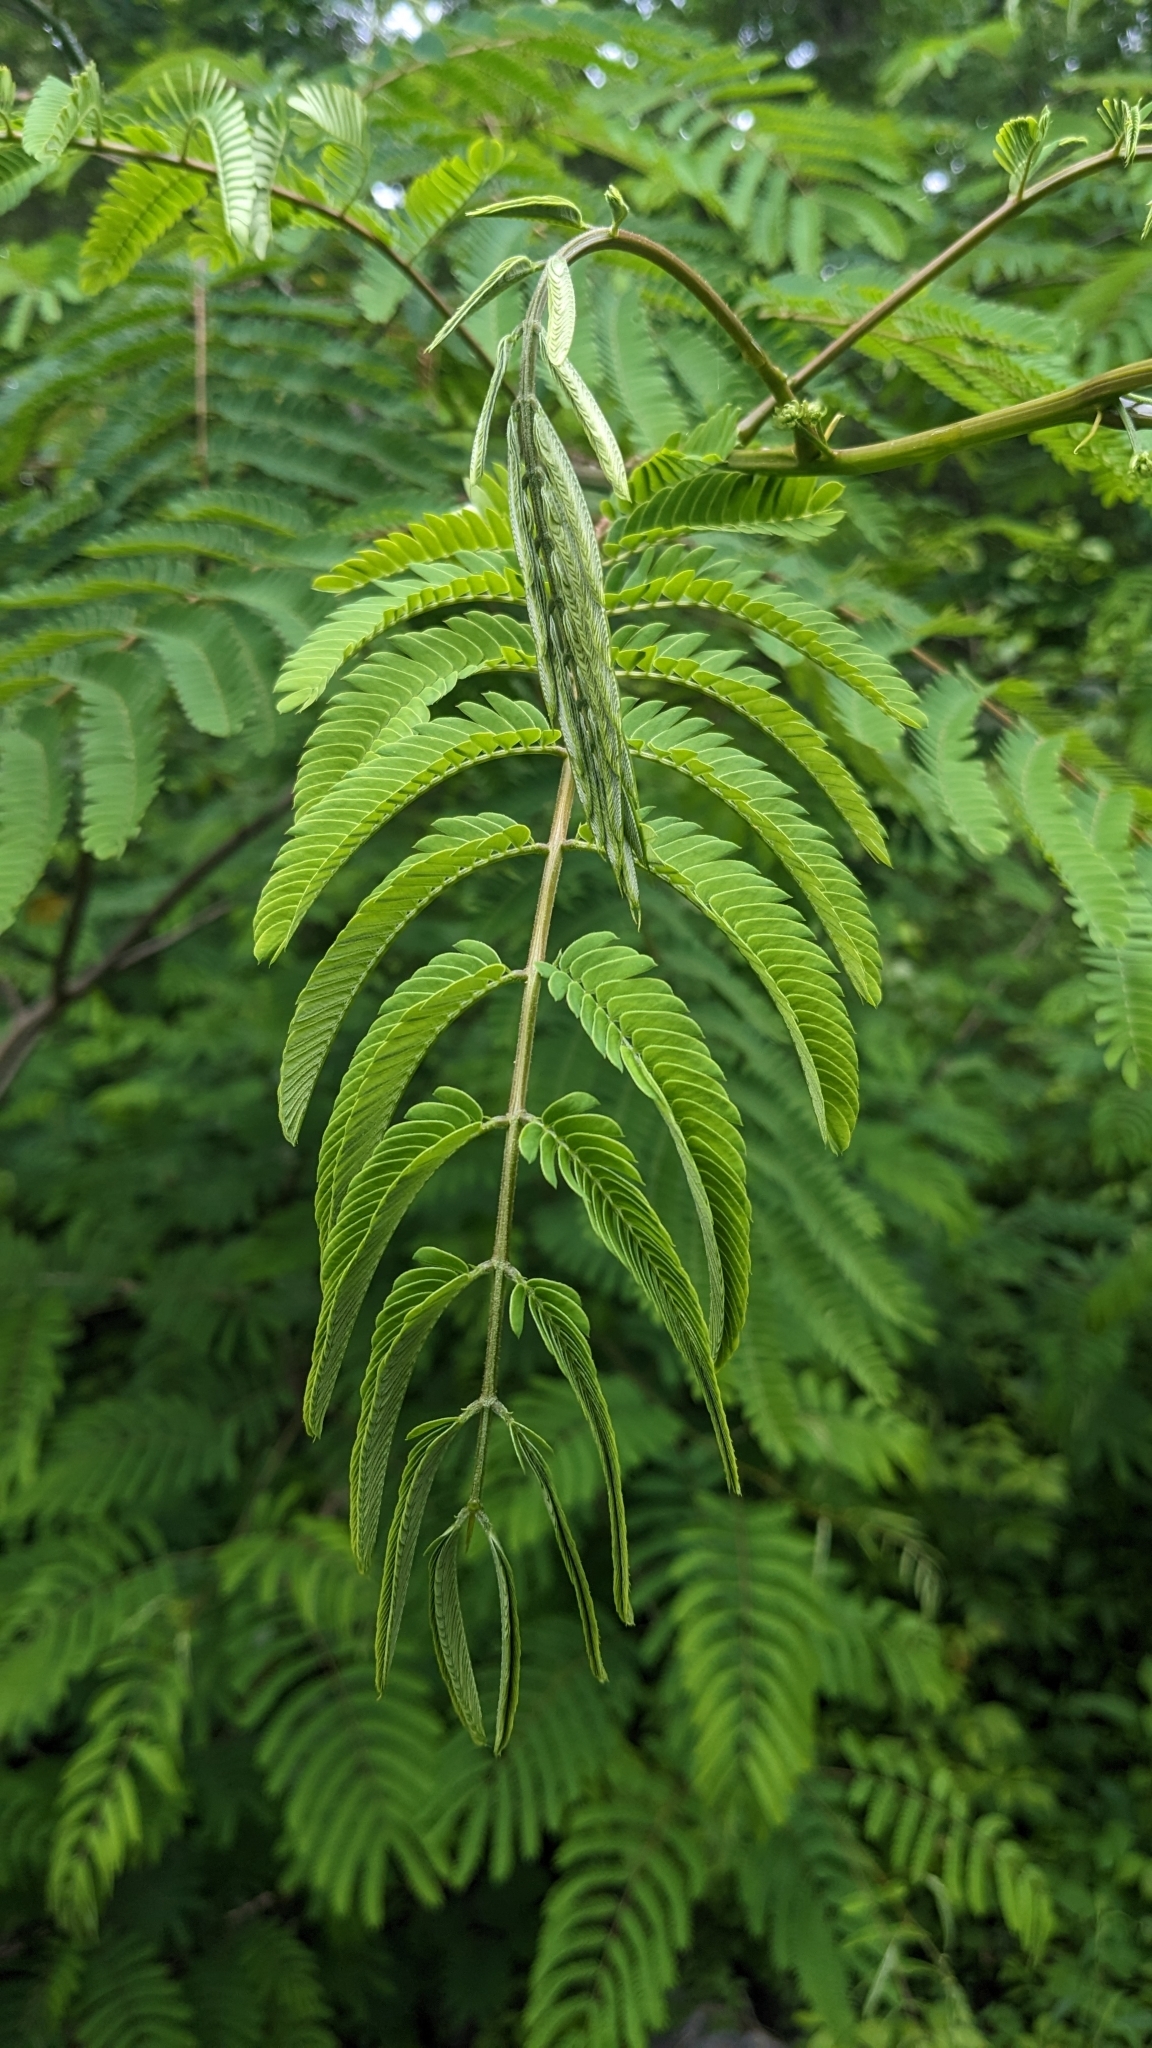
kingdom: Plantae
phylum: Tracheophyta
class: Magnoliopsida
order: Fabales
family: Fabaceae
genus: Albizia
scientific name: Albizia julibrissin
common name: Silktree
